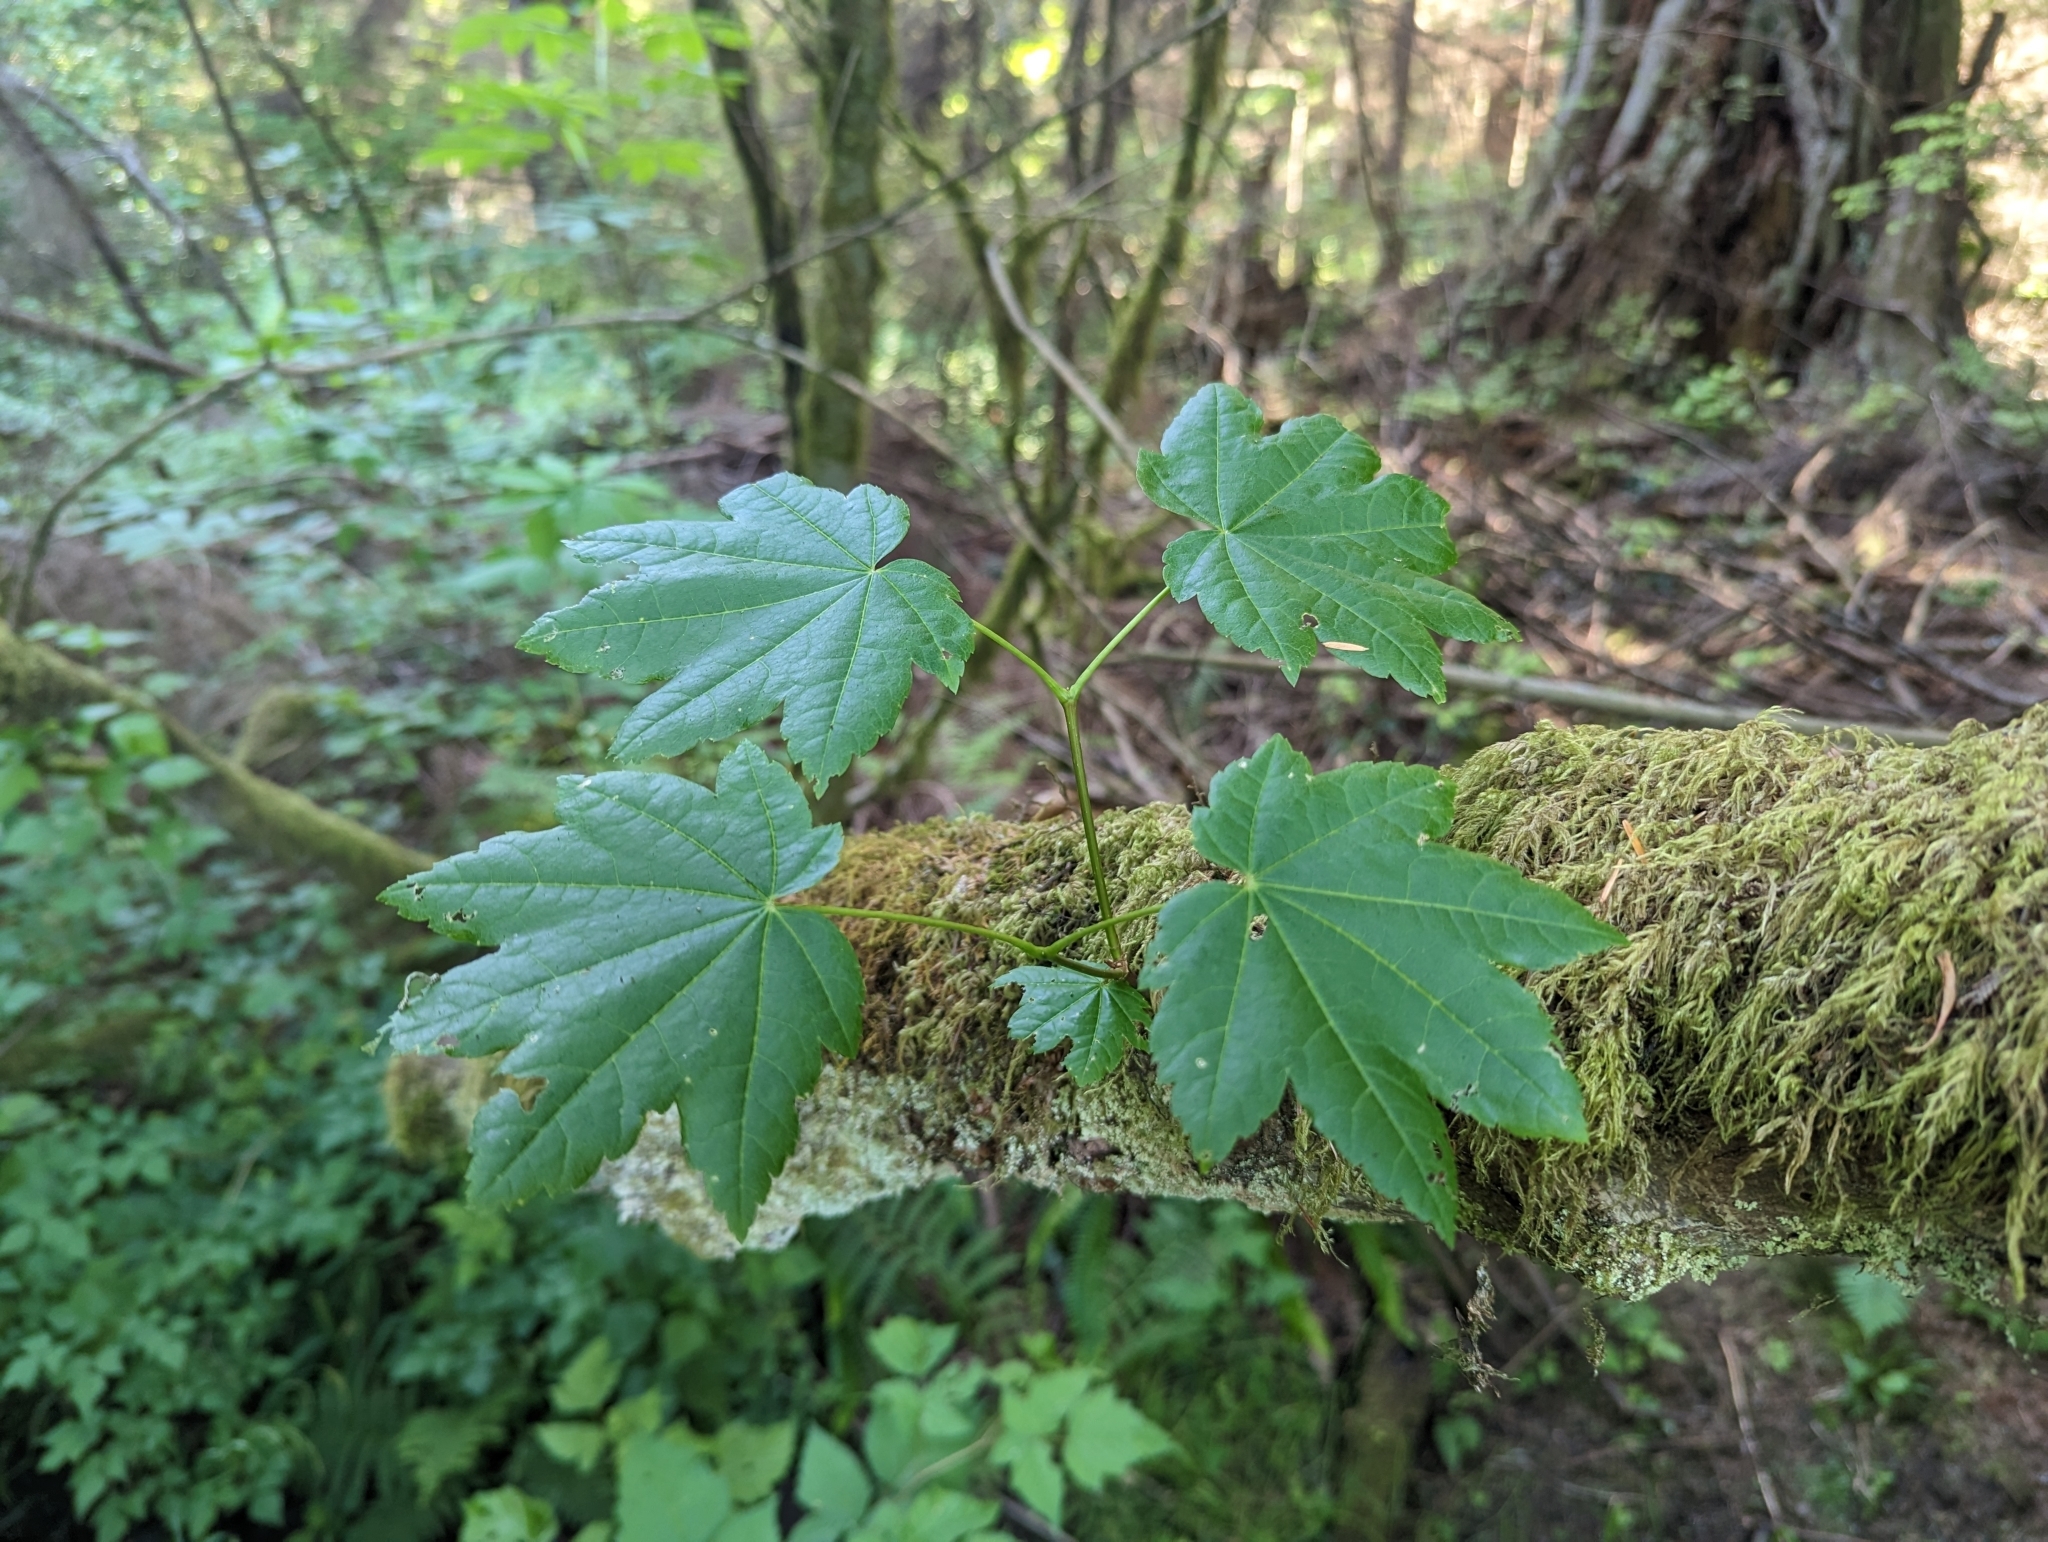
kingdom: Plantae
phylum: Tracheophyta
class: Magnoliopsida
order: Sapindales
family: Sapindaceae
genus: Acer
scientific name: Acer circinatum
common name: Vine maple
